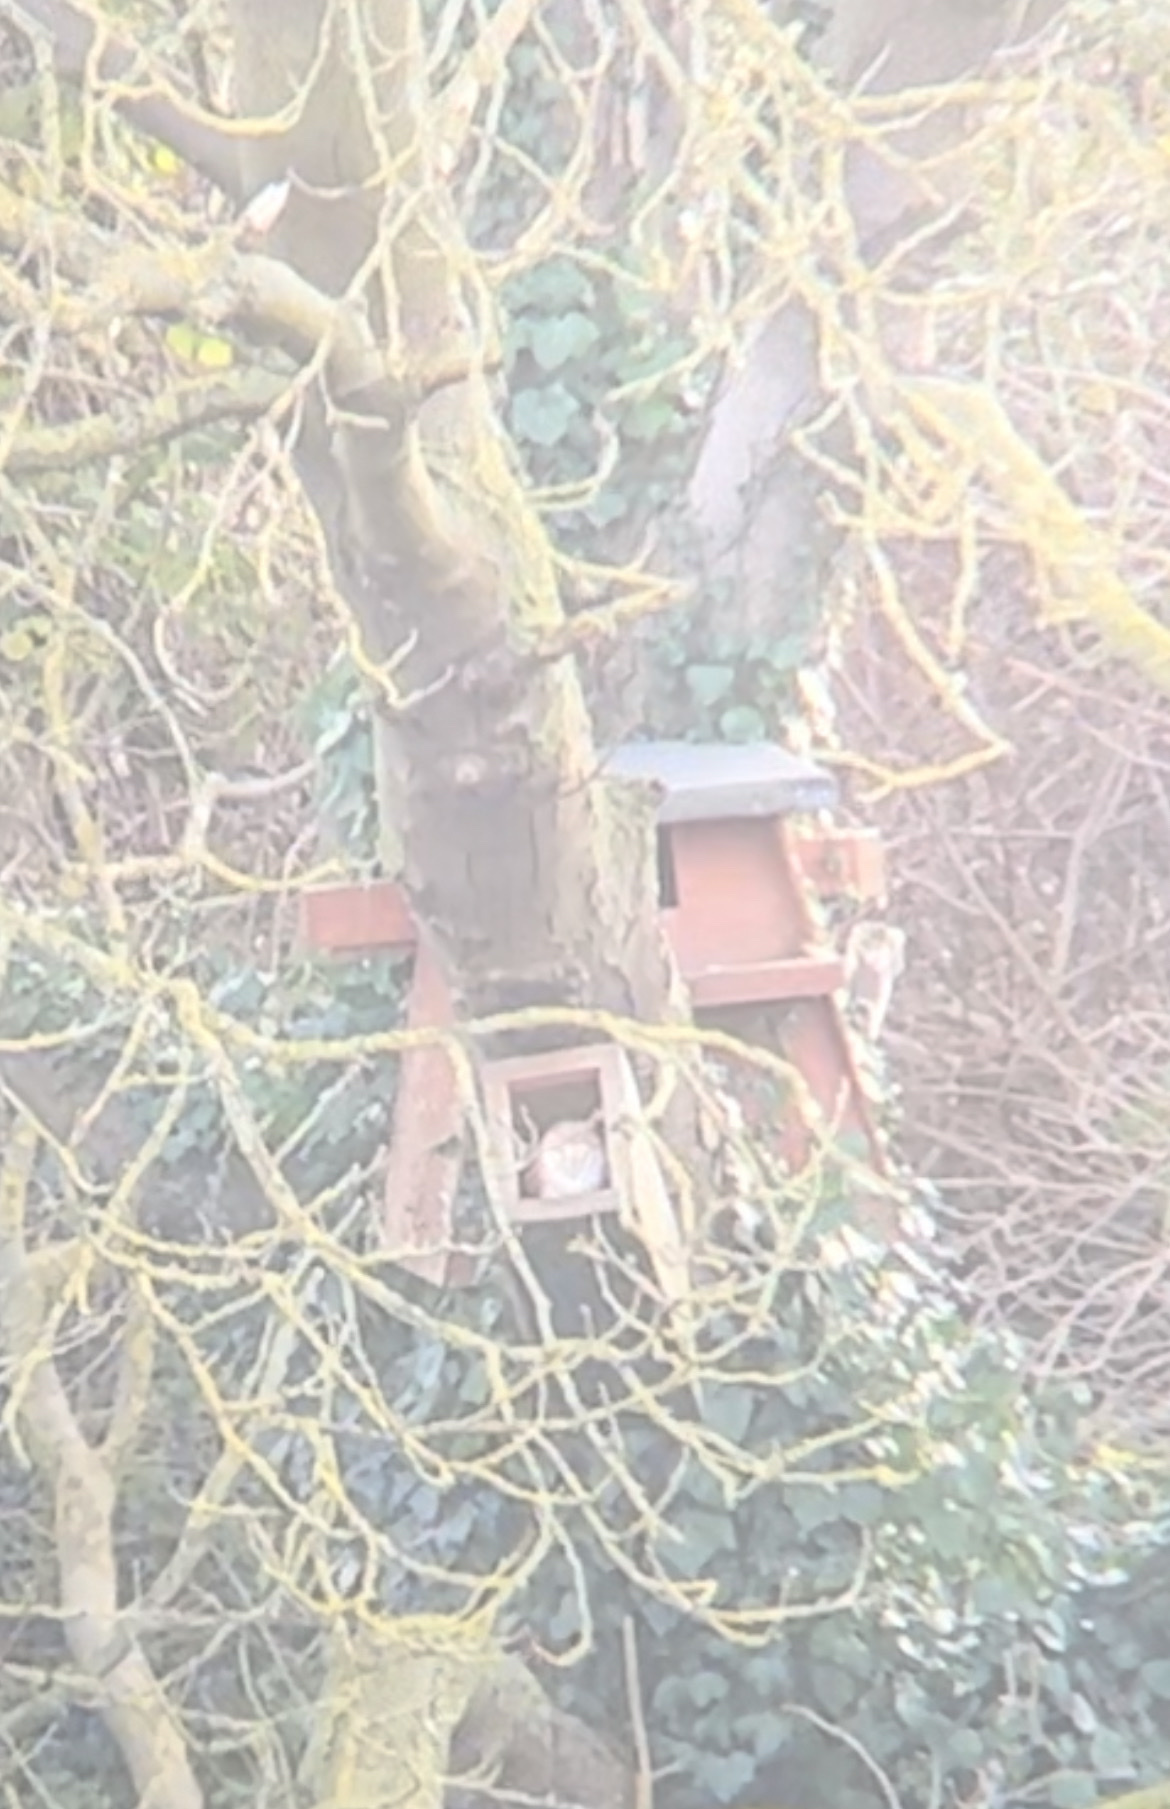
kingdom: Animalia
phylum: Chordata
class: Aves
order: Strigiformes
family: Tytonidae
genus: Tyto
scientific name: Tyto alba
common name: Barn owl
